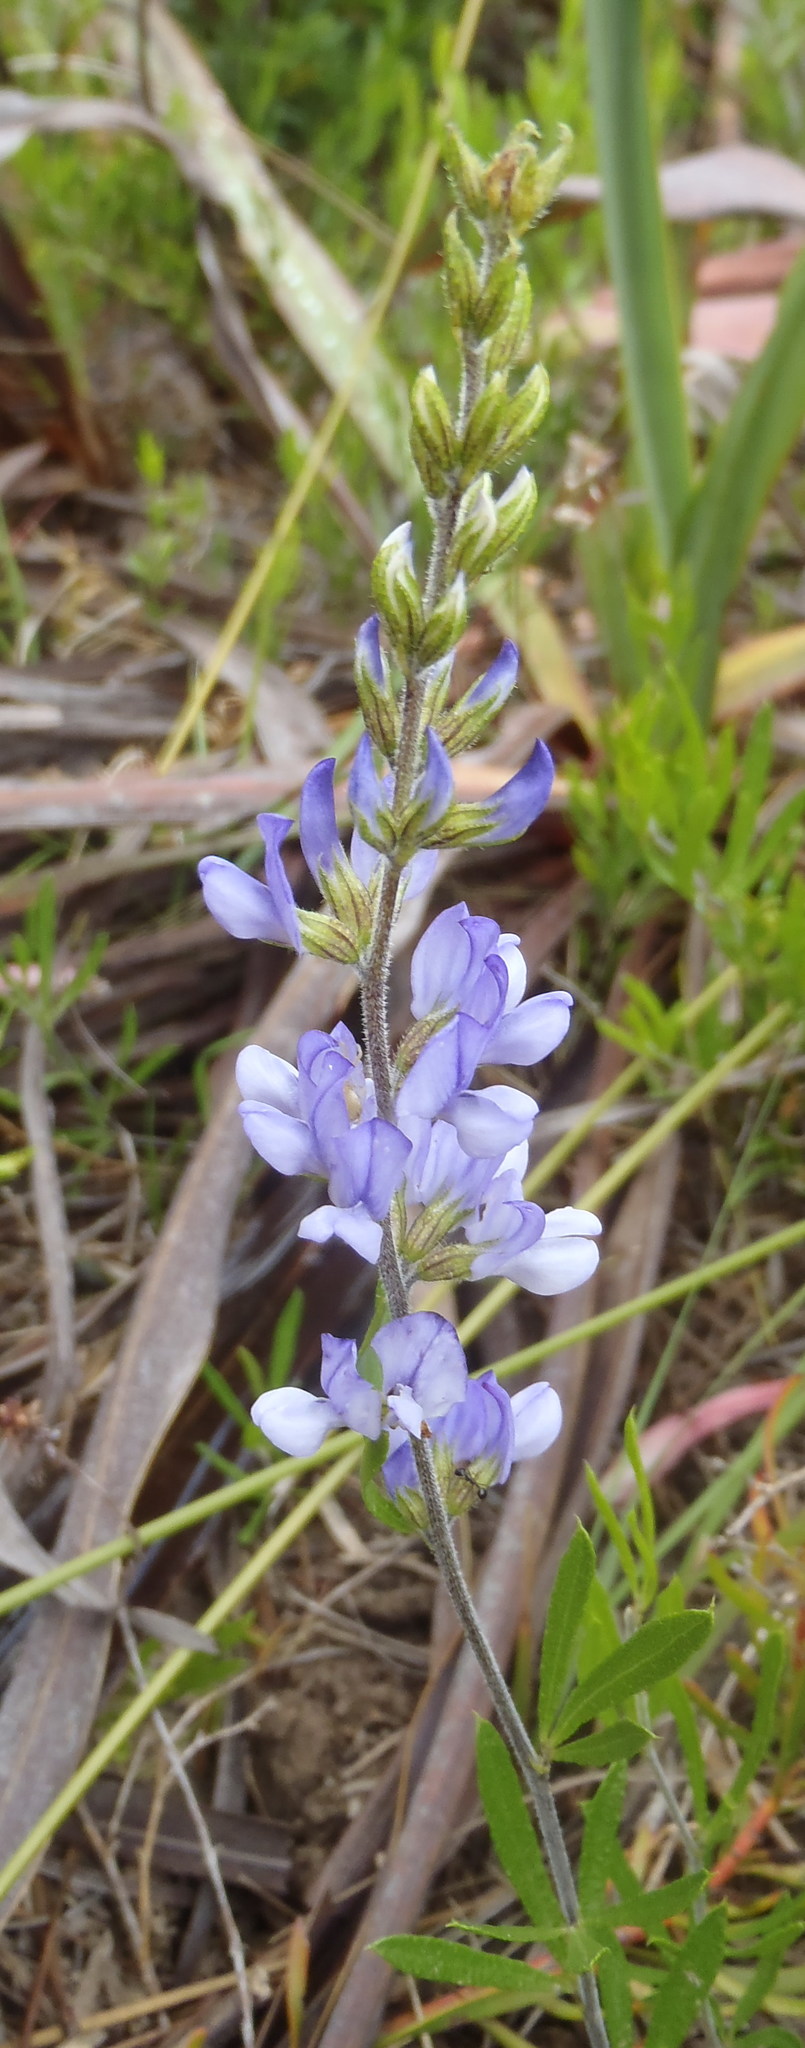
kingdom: Plantae
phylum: Tracheophyta
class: Magnoliopsida
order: Fabales
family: Fabaceae
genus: Psoralea
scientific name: Psoralea racemosa
